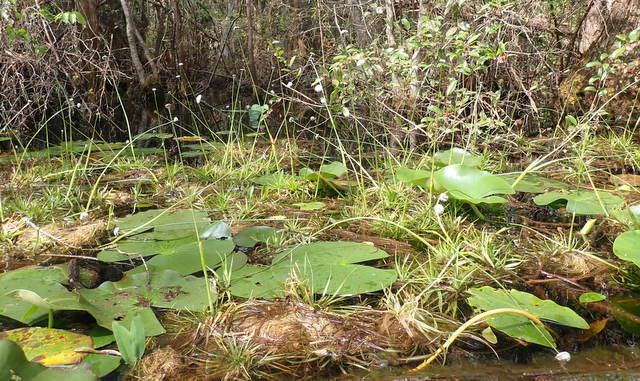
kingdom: Plantae
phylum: Tracheophyta
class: Liliopsida
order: Poales
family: Eriocaulaceae
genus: Eriocaulon
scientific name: Eriocaulon compressum
